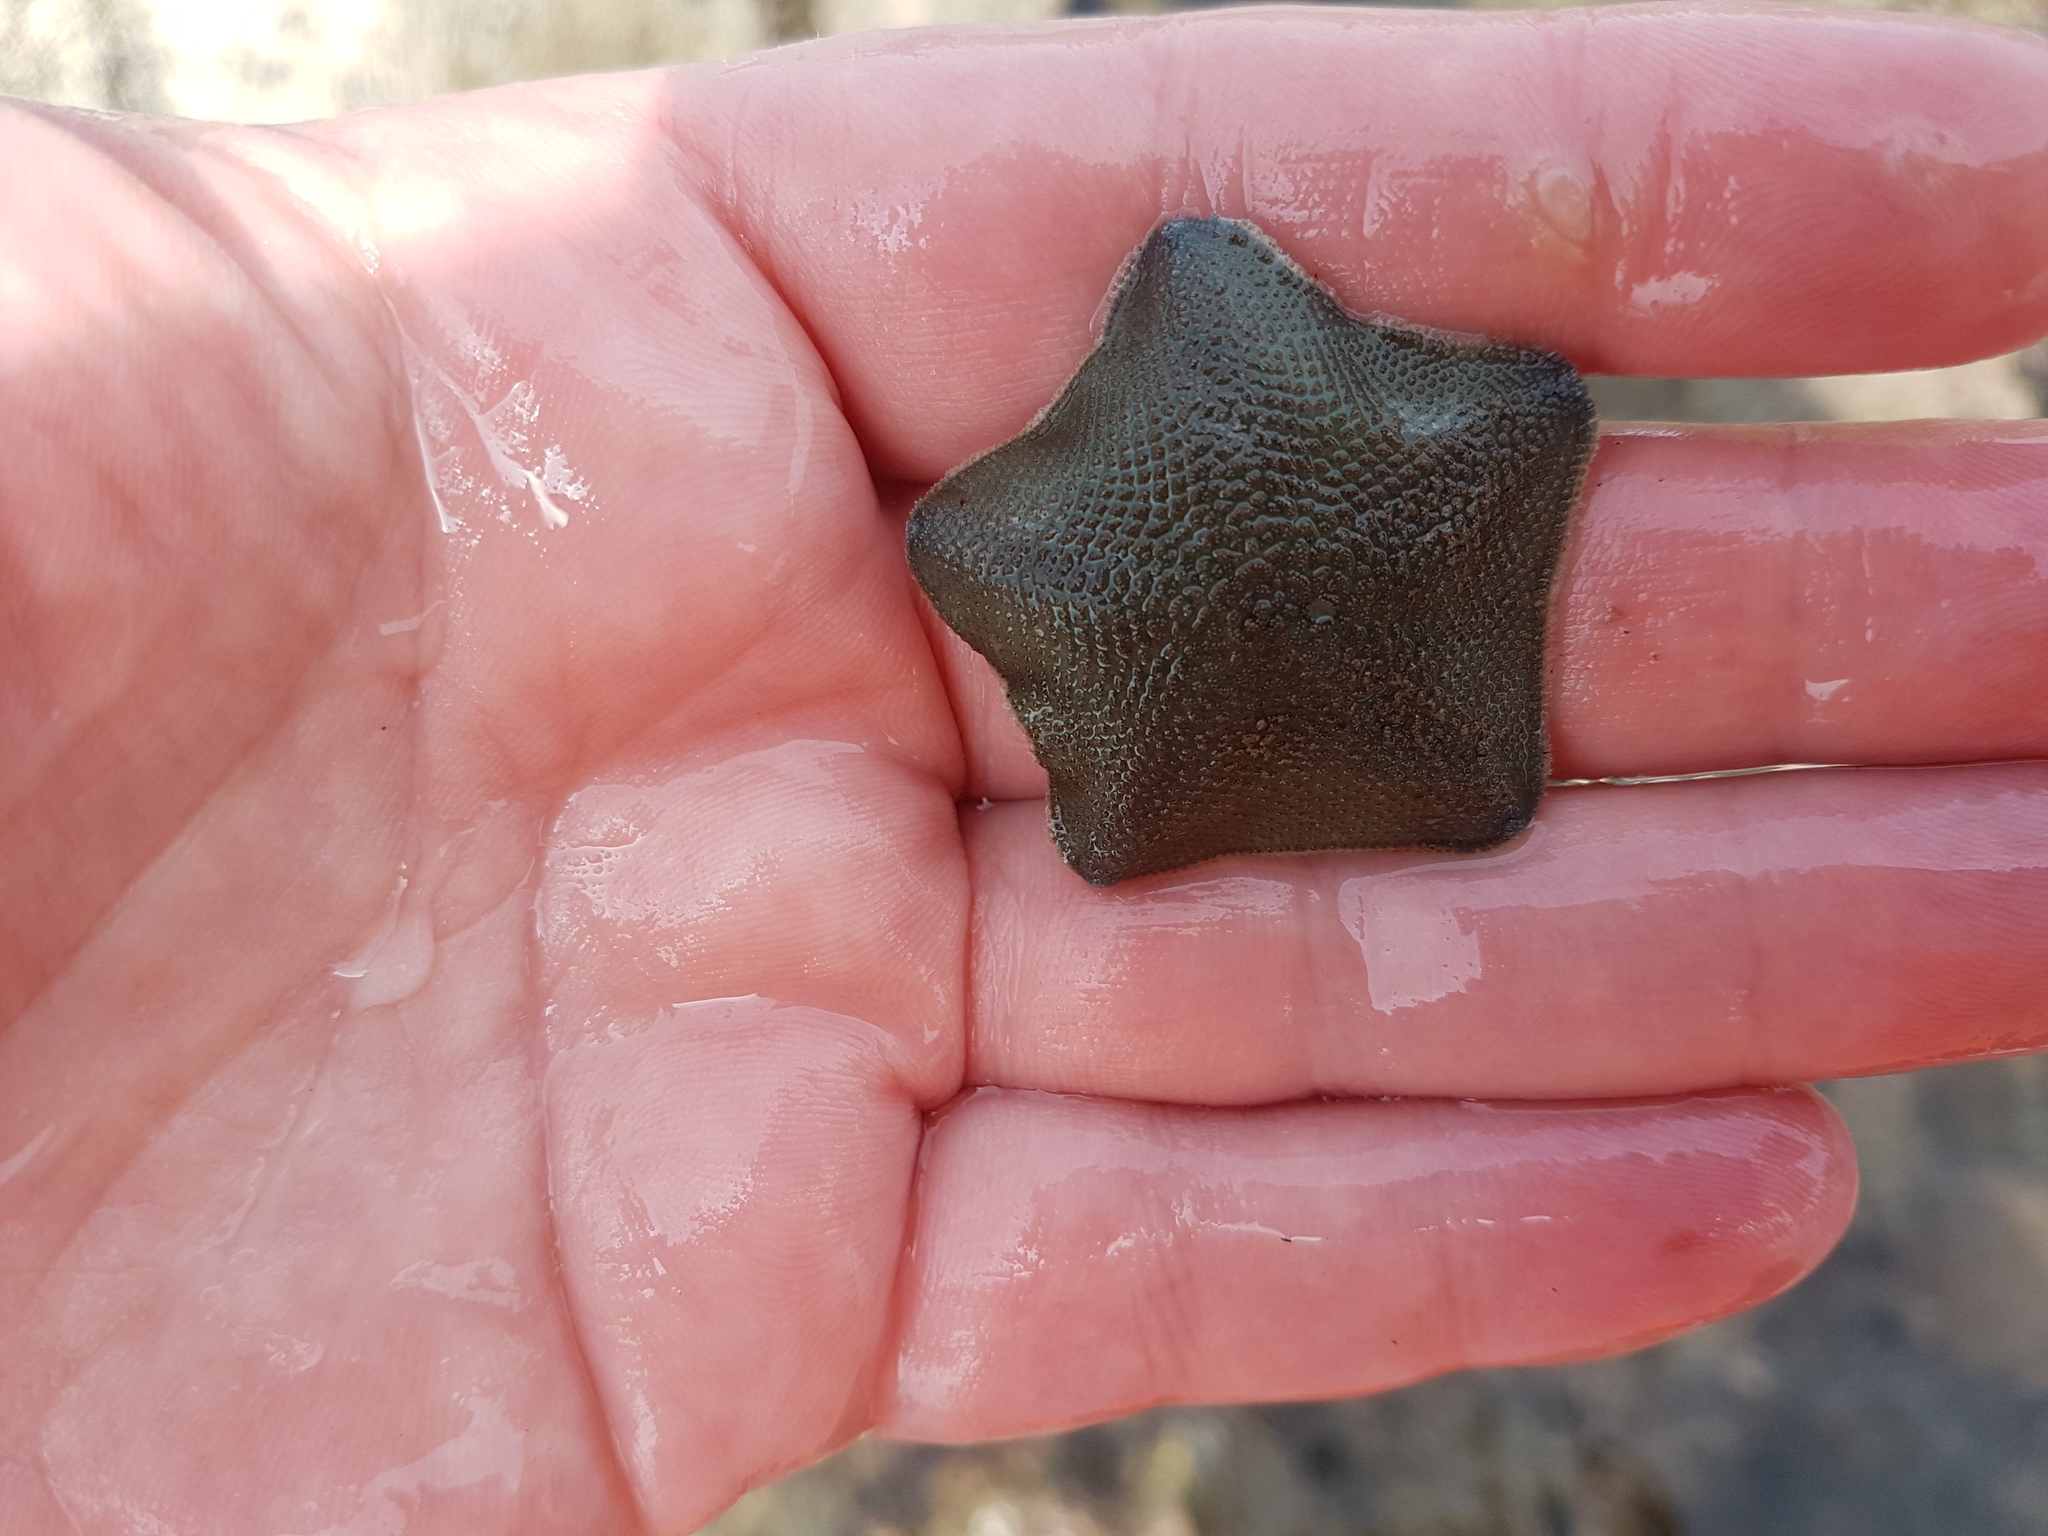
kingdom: Animalia
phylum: Echinodermata
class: Asteroidea
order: Valvatida
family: Asterinidae
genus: Patiriella
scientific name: Patiriella regularis
